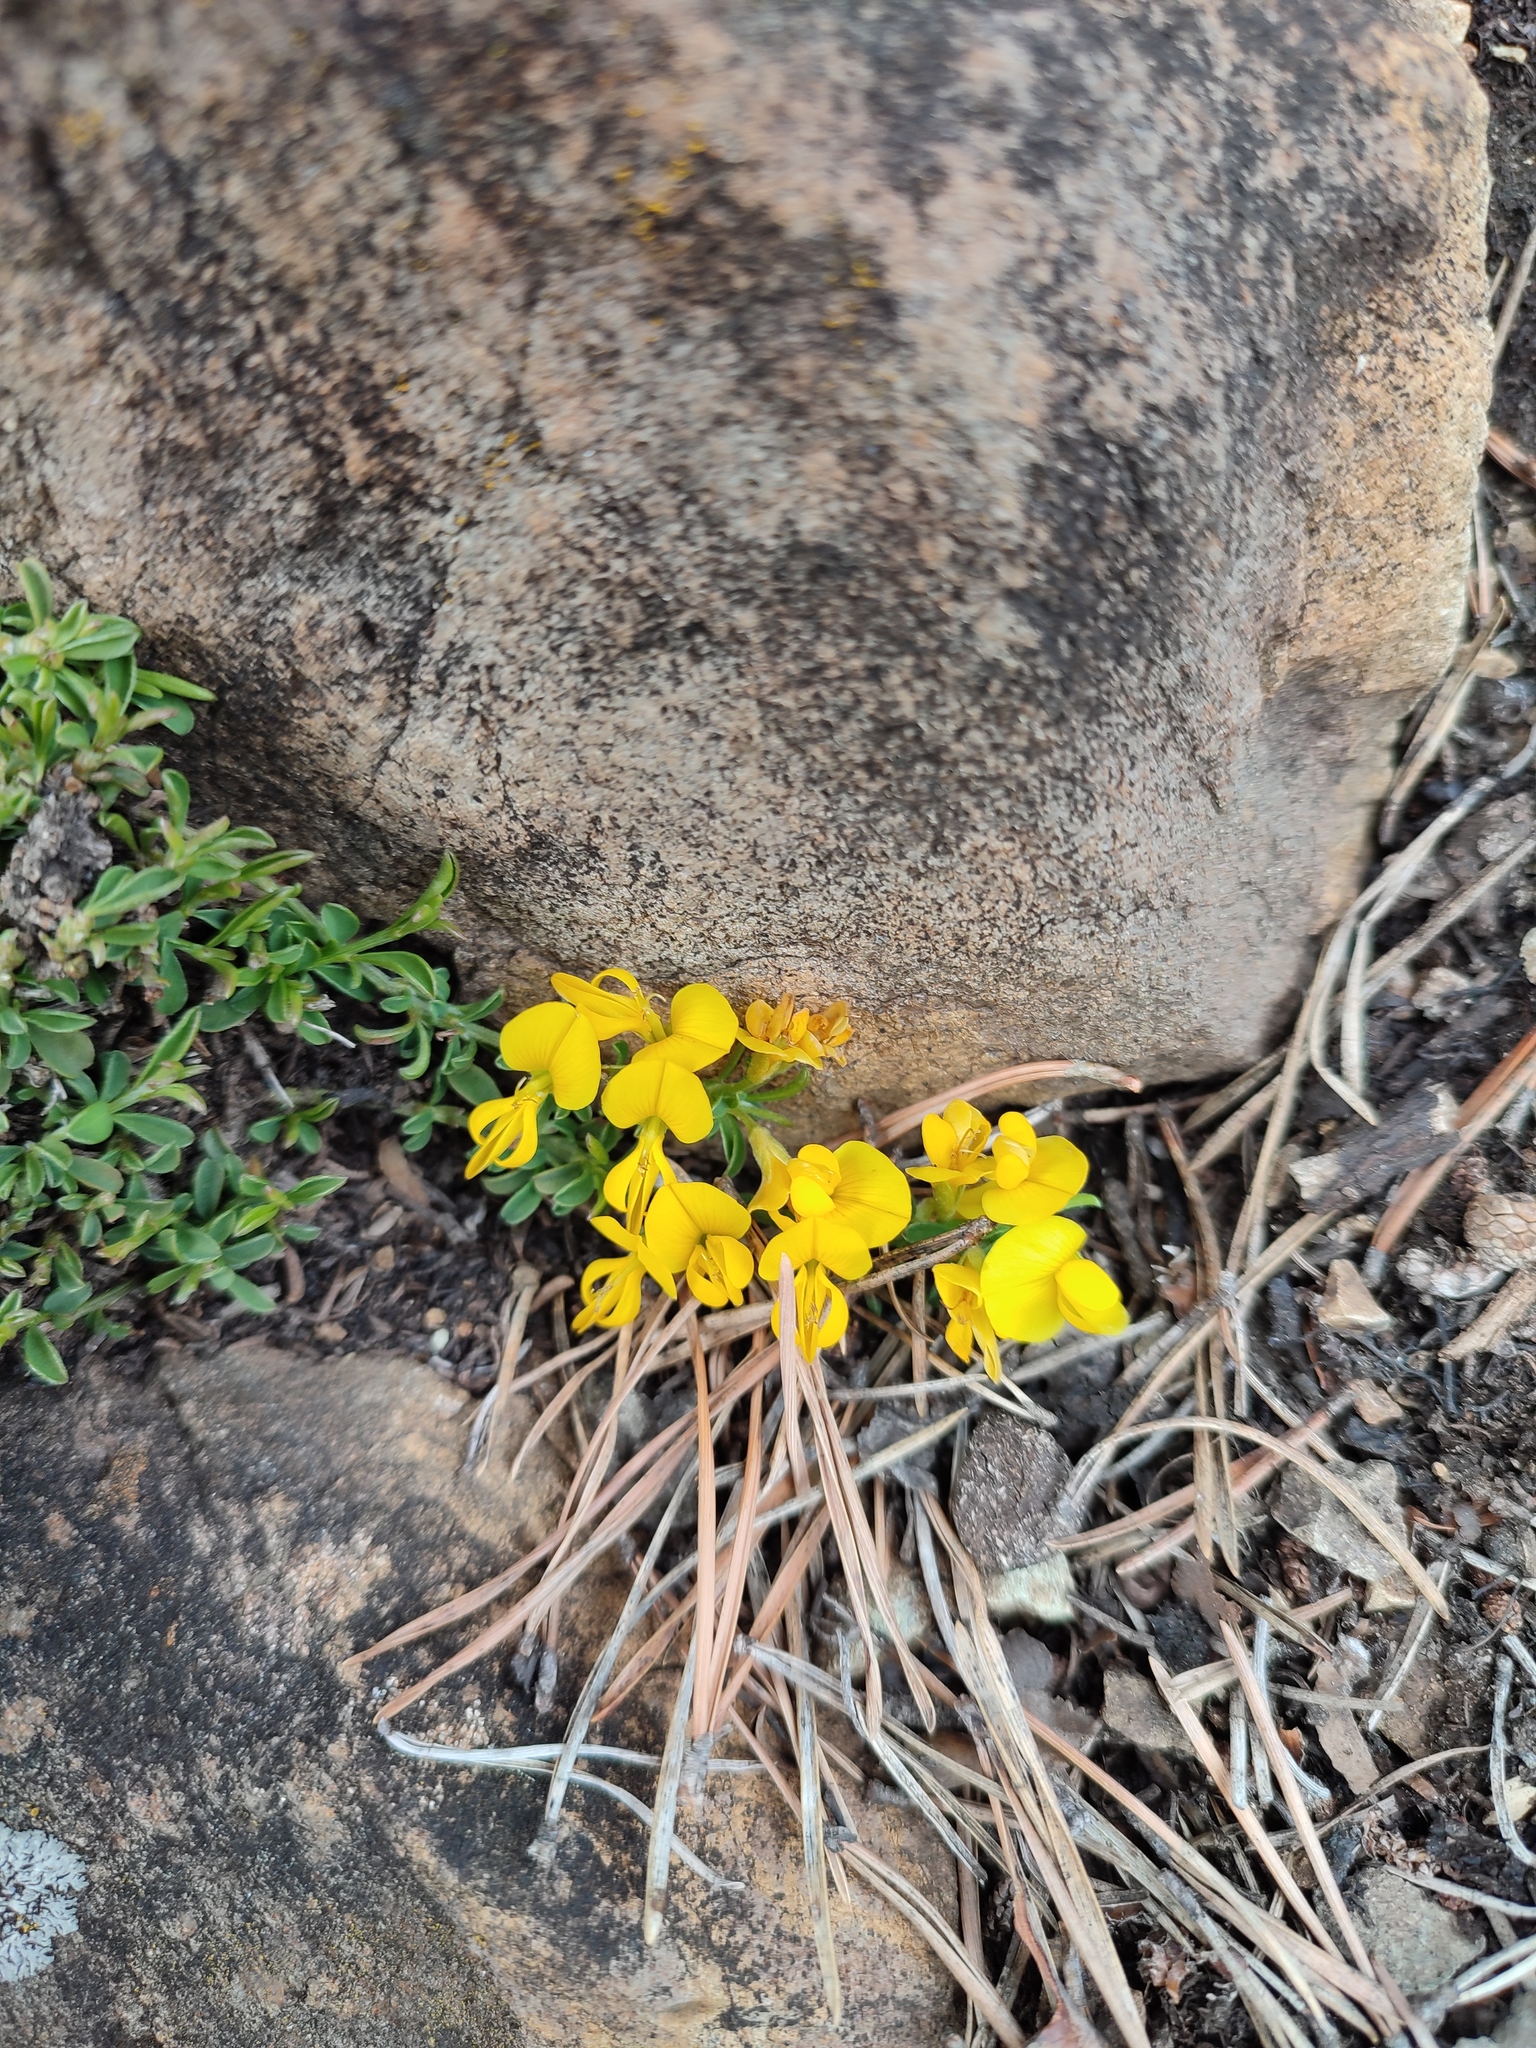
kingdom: Plantae
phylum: Tracheophyta
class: Magnoliopsida
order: Fabales
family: Fabaceae
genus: Genista
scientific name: Genista pilosa
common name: Hairy greenweed
